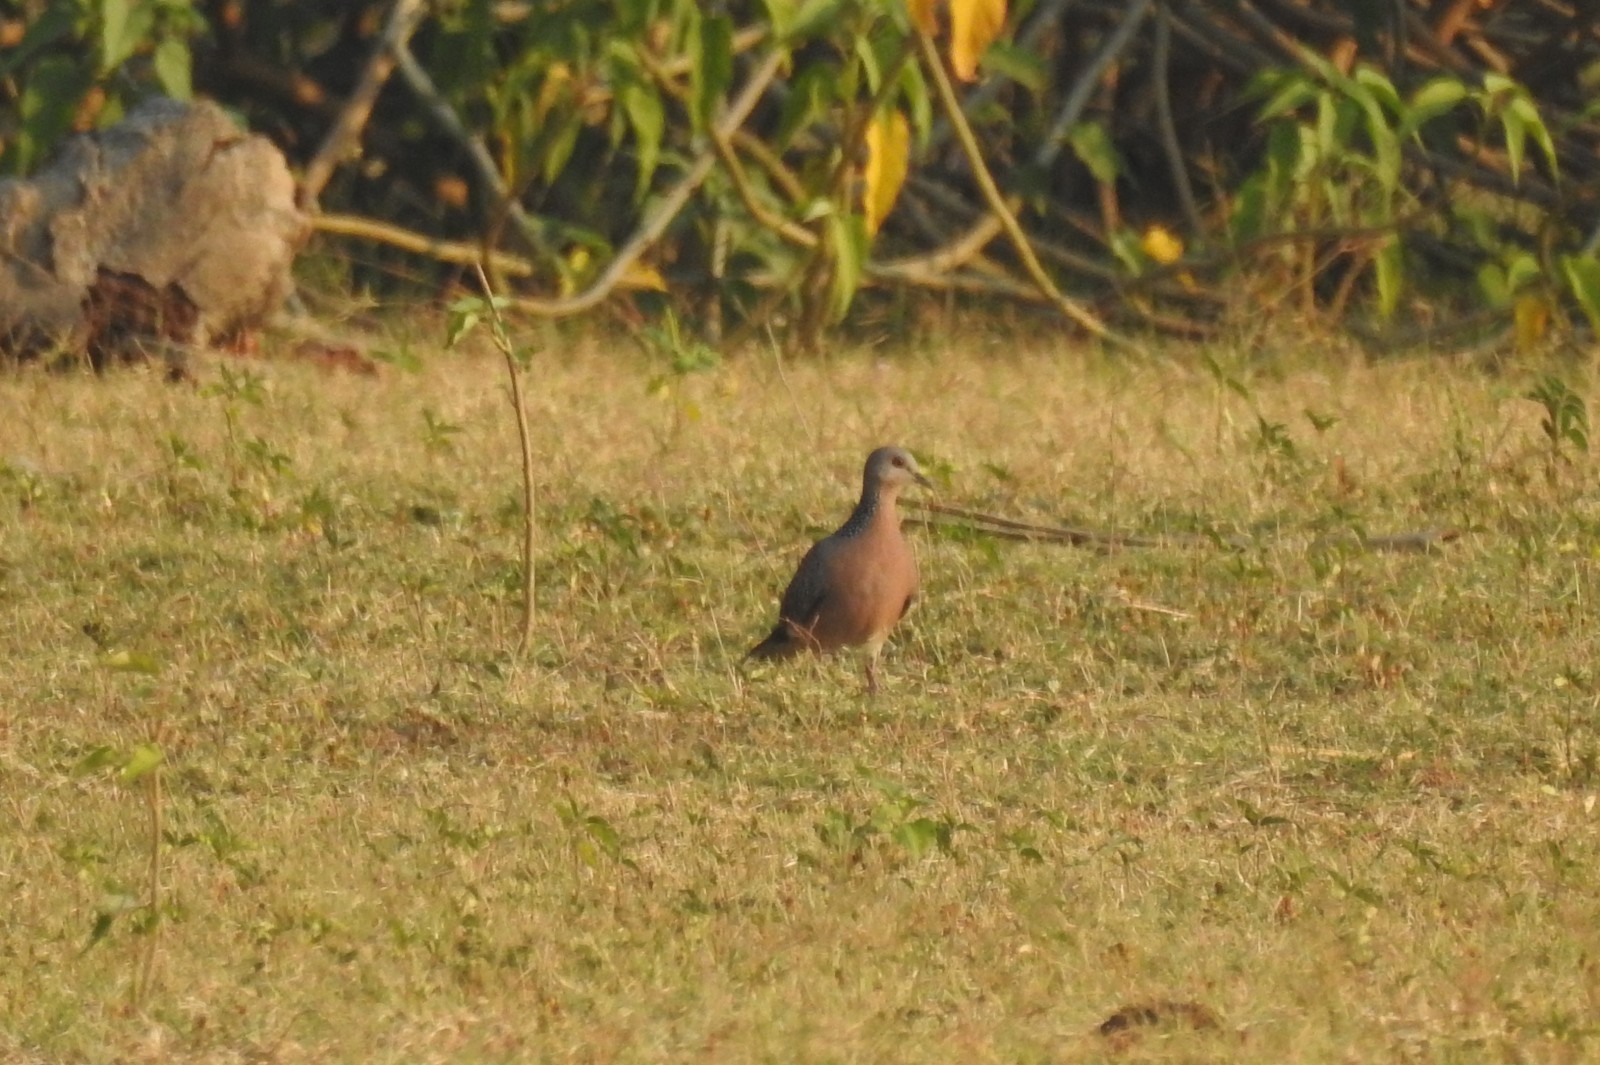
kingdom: Animalia
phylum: Chordata
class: Aves
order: Columbiformes
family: Columbidae
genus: Spilopelia
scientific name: Spilopelia chinensis
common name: Spotted dove
